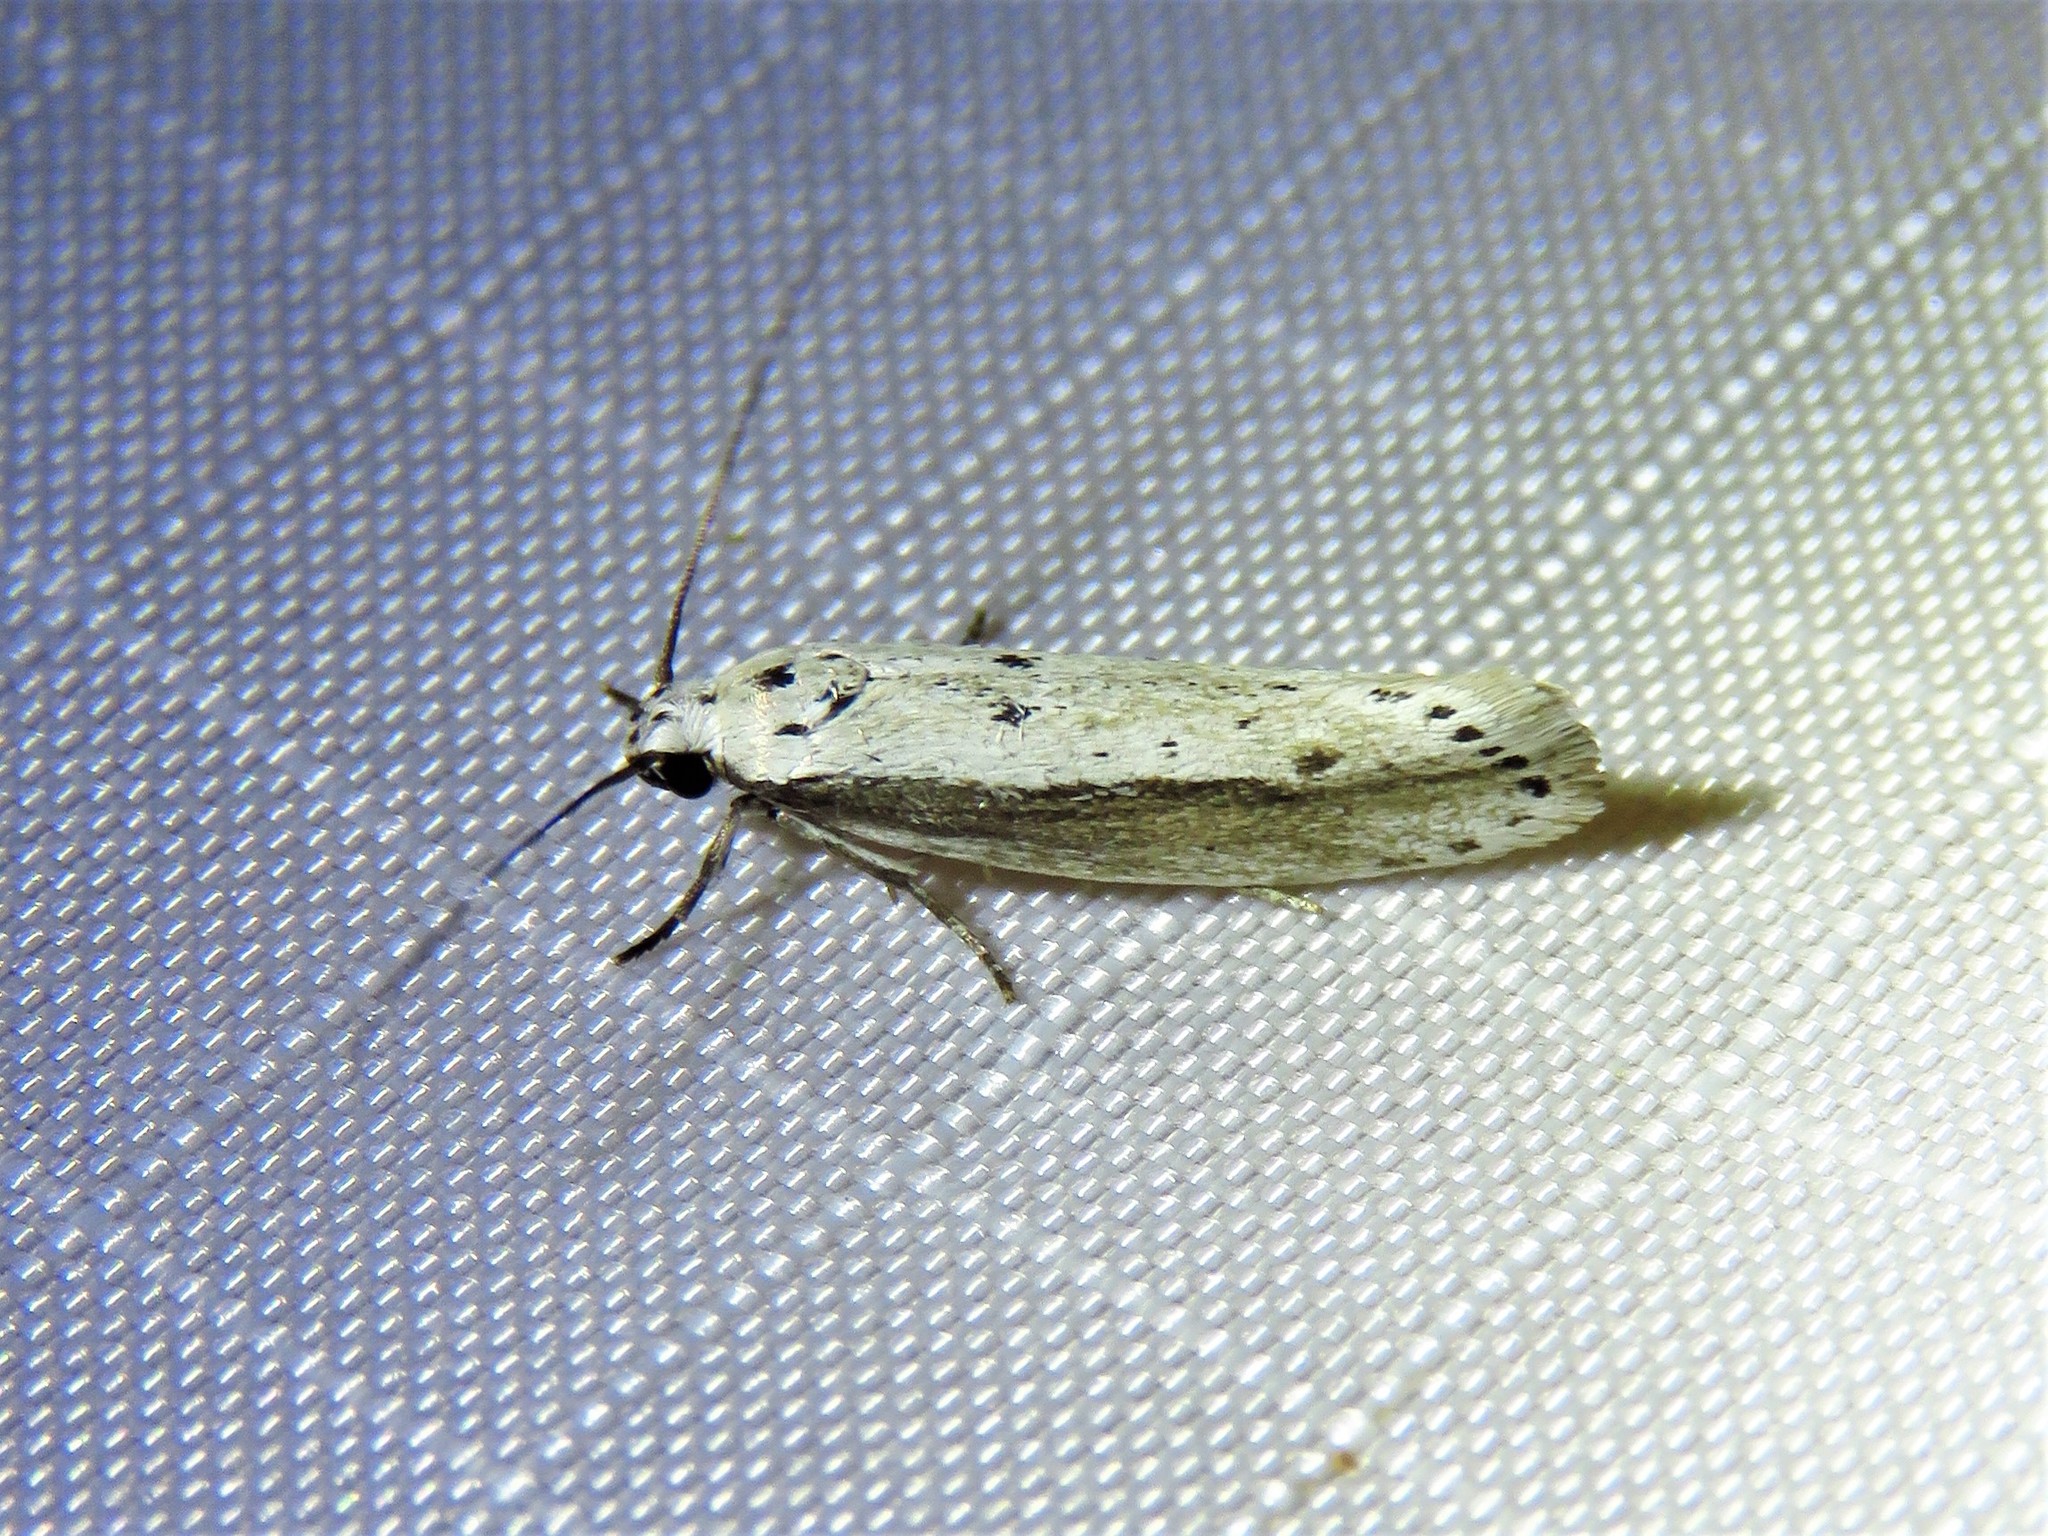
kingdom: Animalia
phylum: Arthropoda
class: Insecta
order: Lepidoptera
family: Ethmiidae
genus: Ethmia
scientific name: Ethmia mirusella
